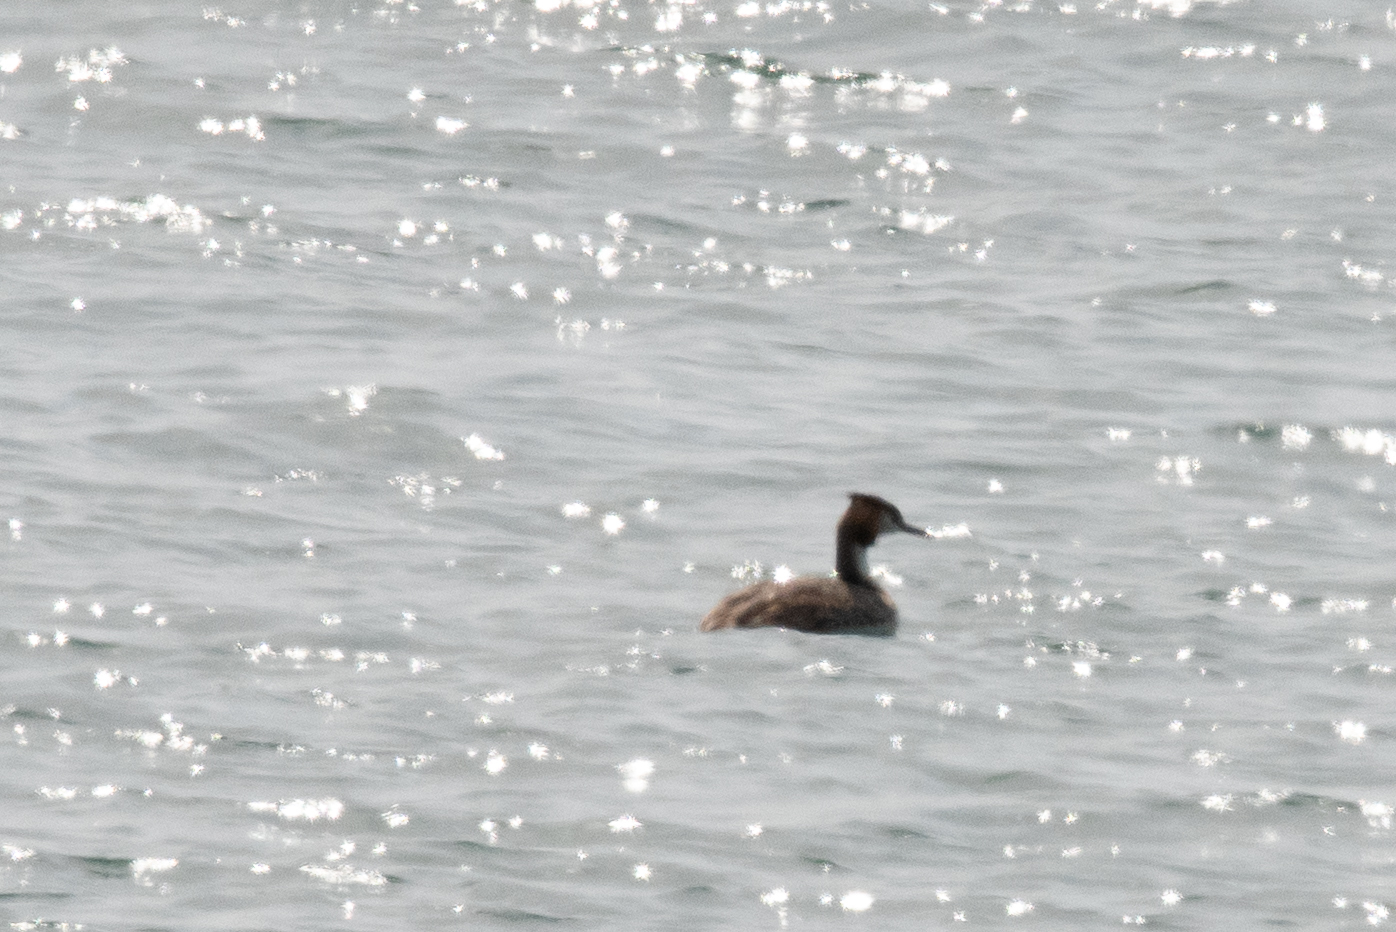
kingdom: Animalia
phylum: Chordata
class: Aves
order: Podicipediformes
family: Podicipedidae
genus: Podiceps
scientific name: Podiceps cristatus
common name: Great crested grebe
